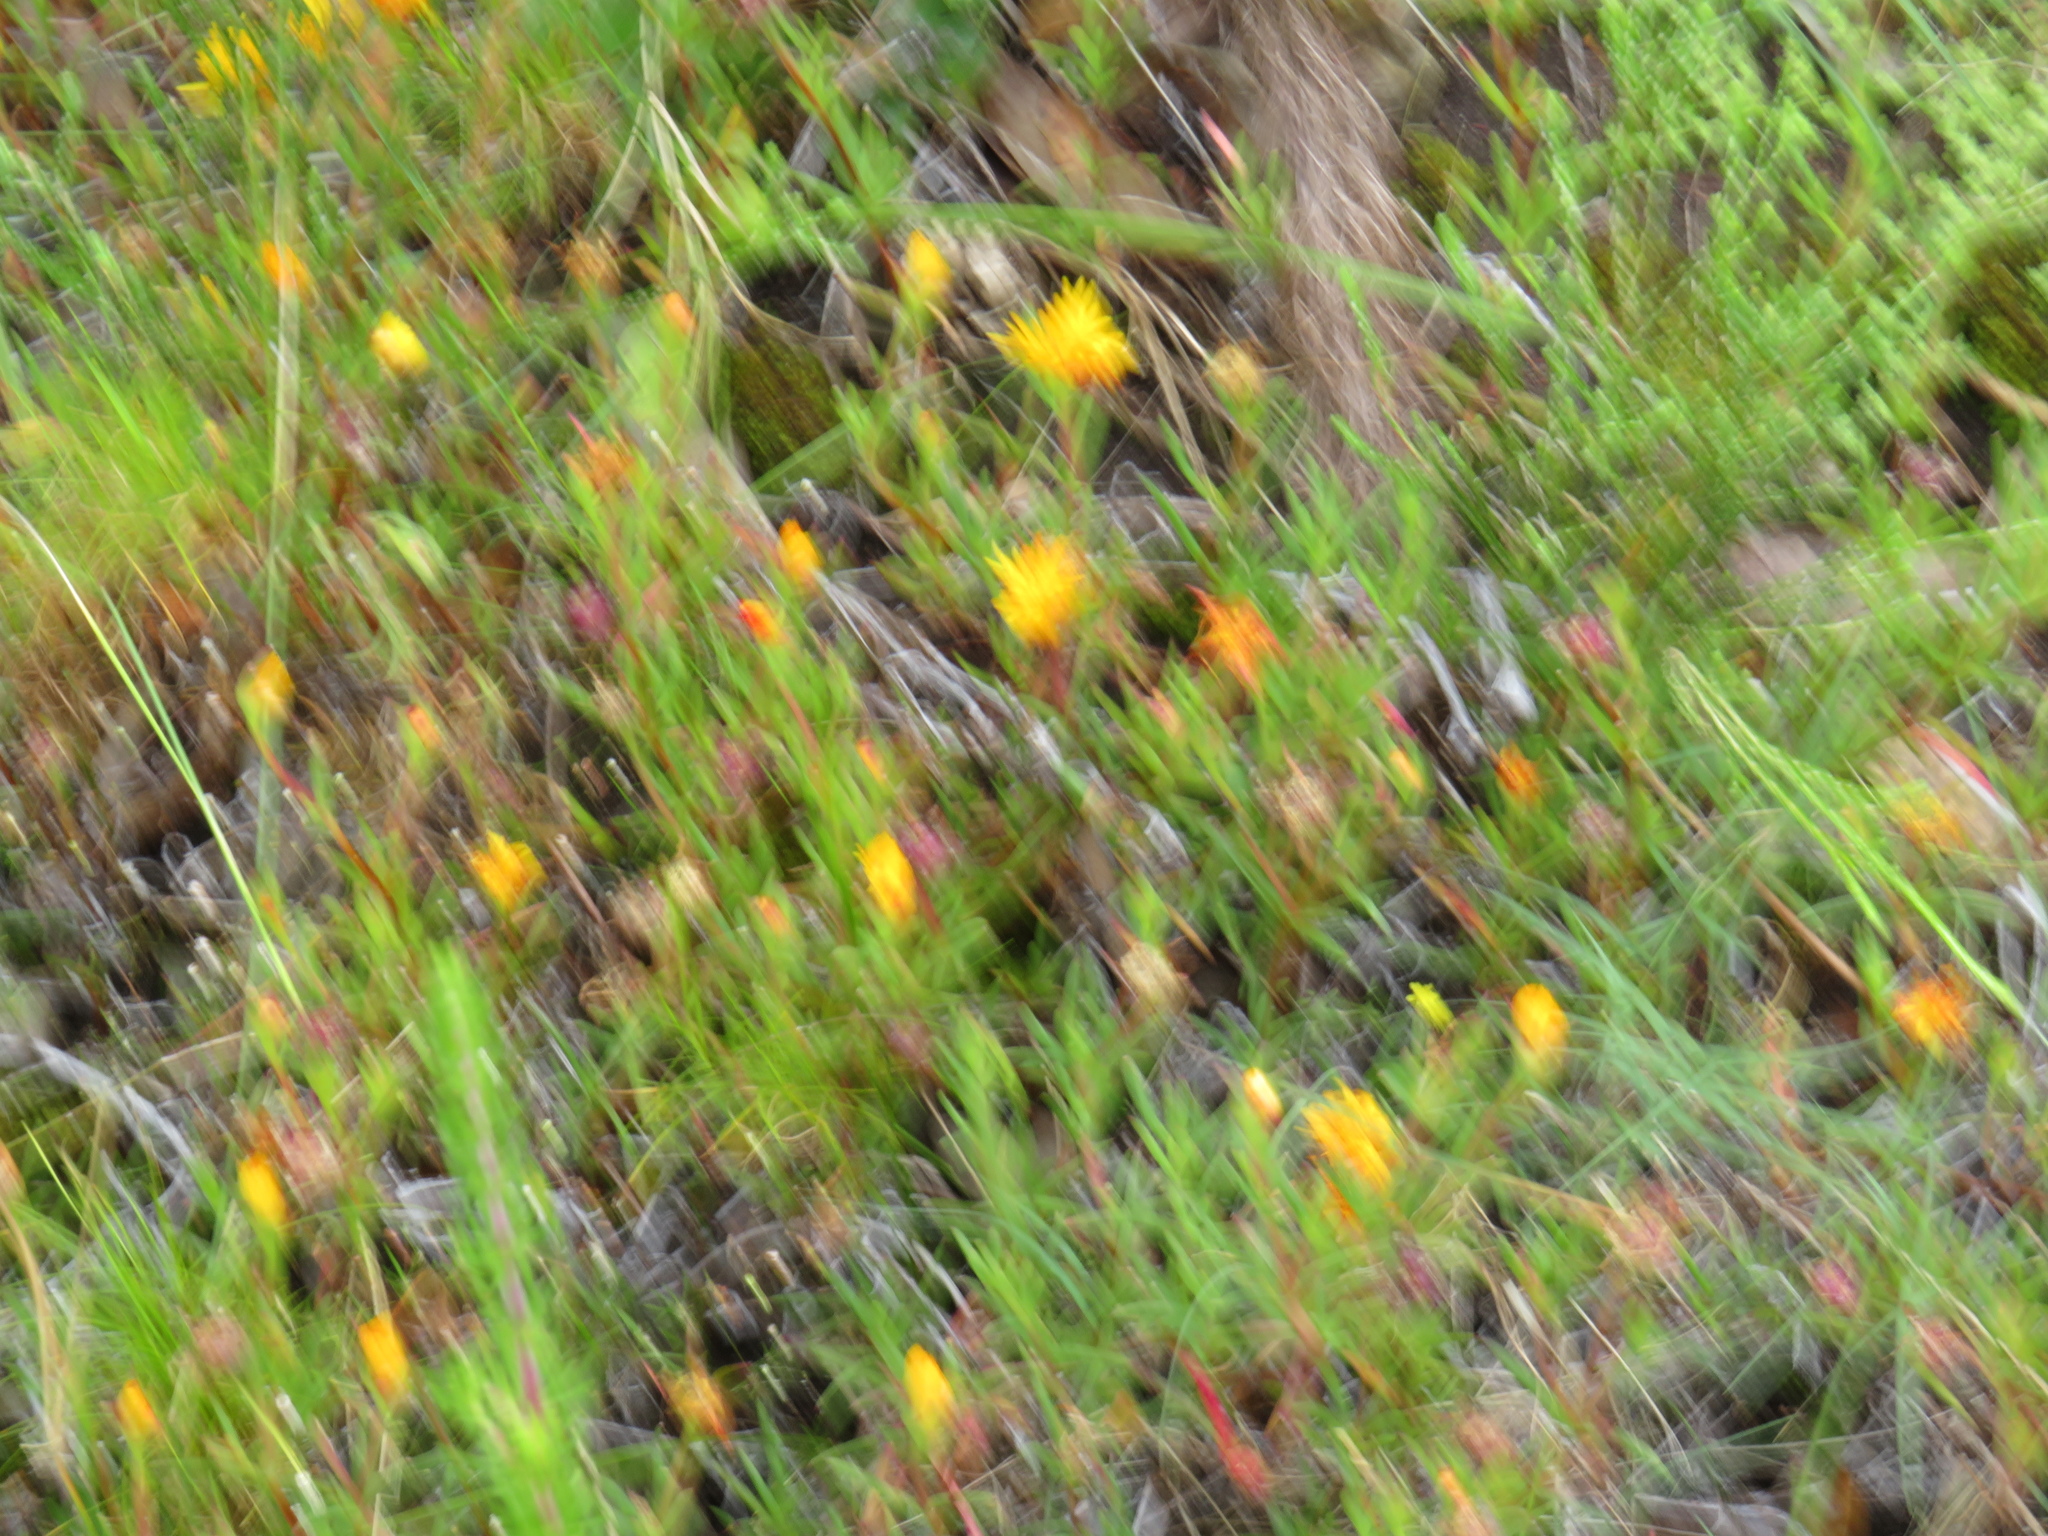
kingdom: Plantae
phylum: Tracheophyta
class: Magnoliopsida
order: Caryophyllales
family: Aizoaceae
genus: Lampranthus
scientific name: Lampranthus bicolor
